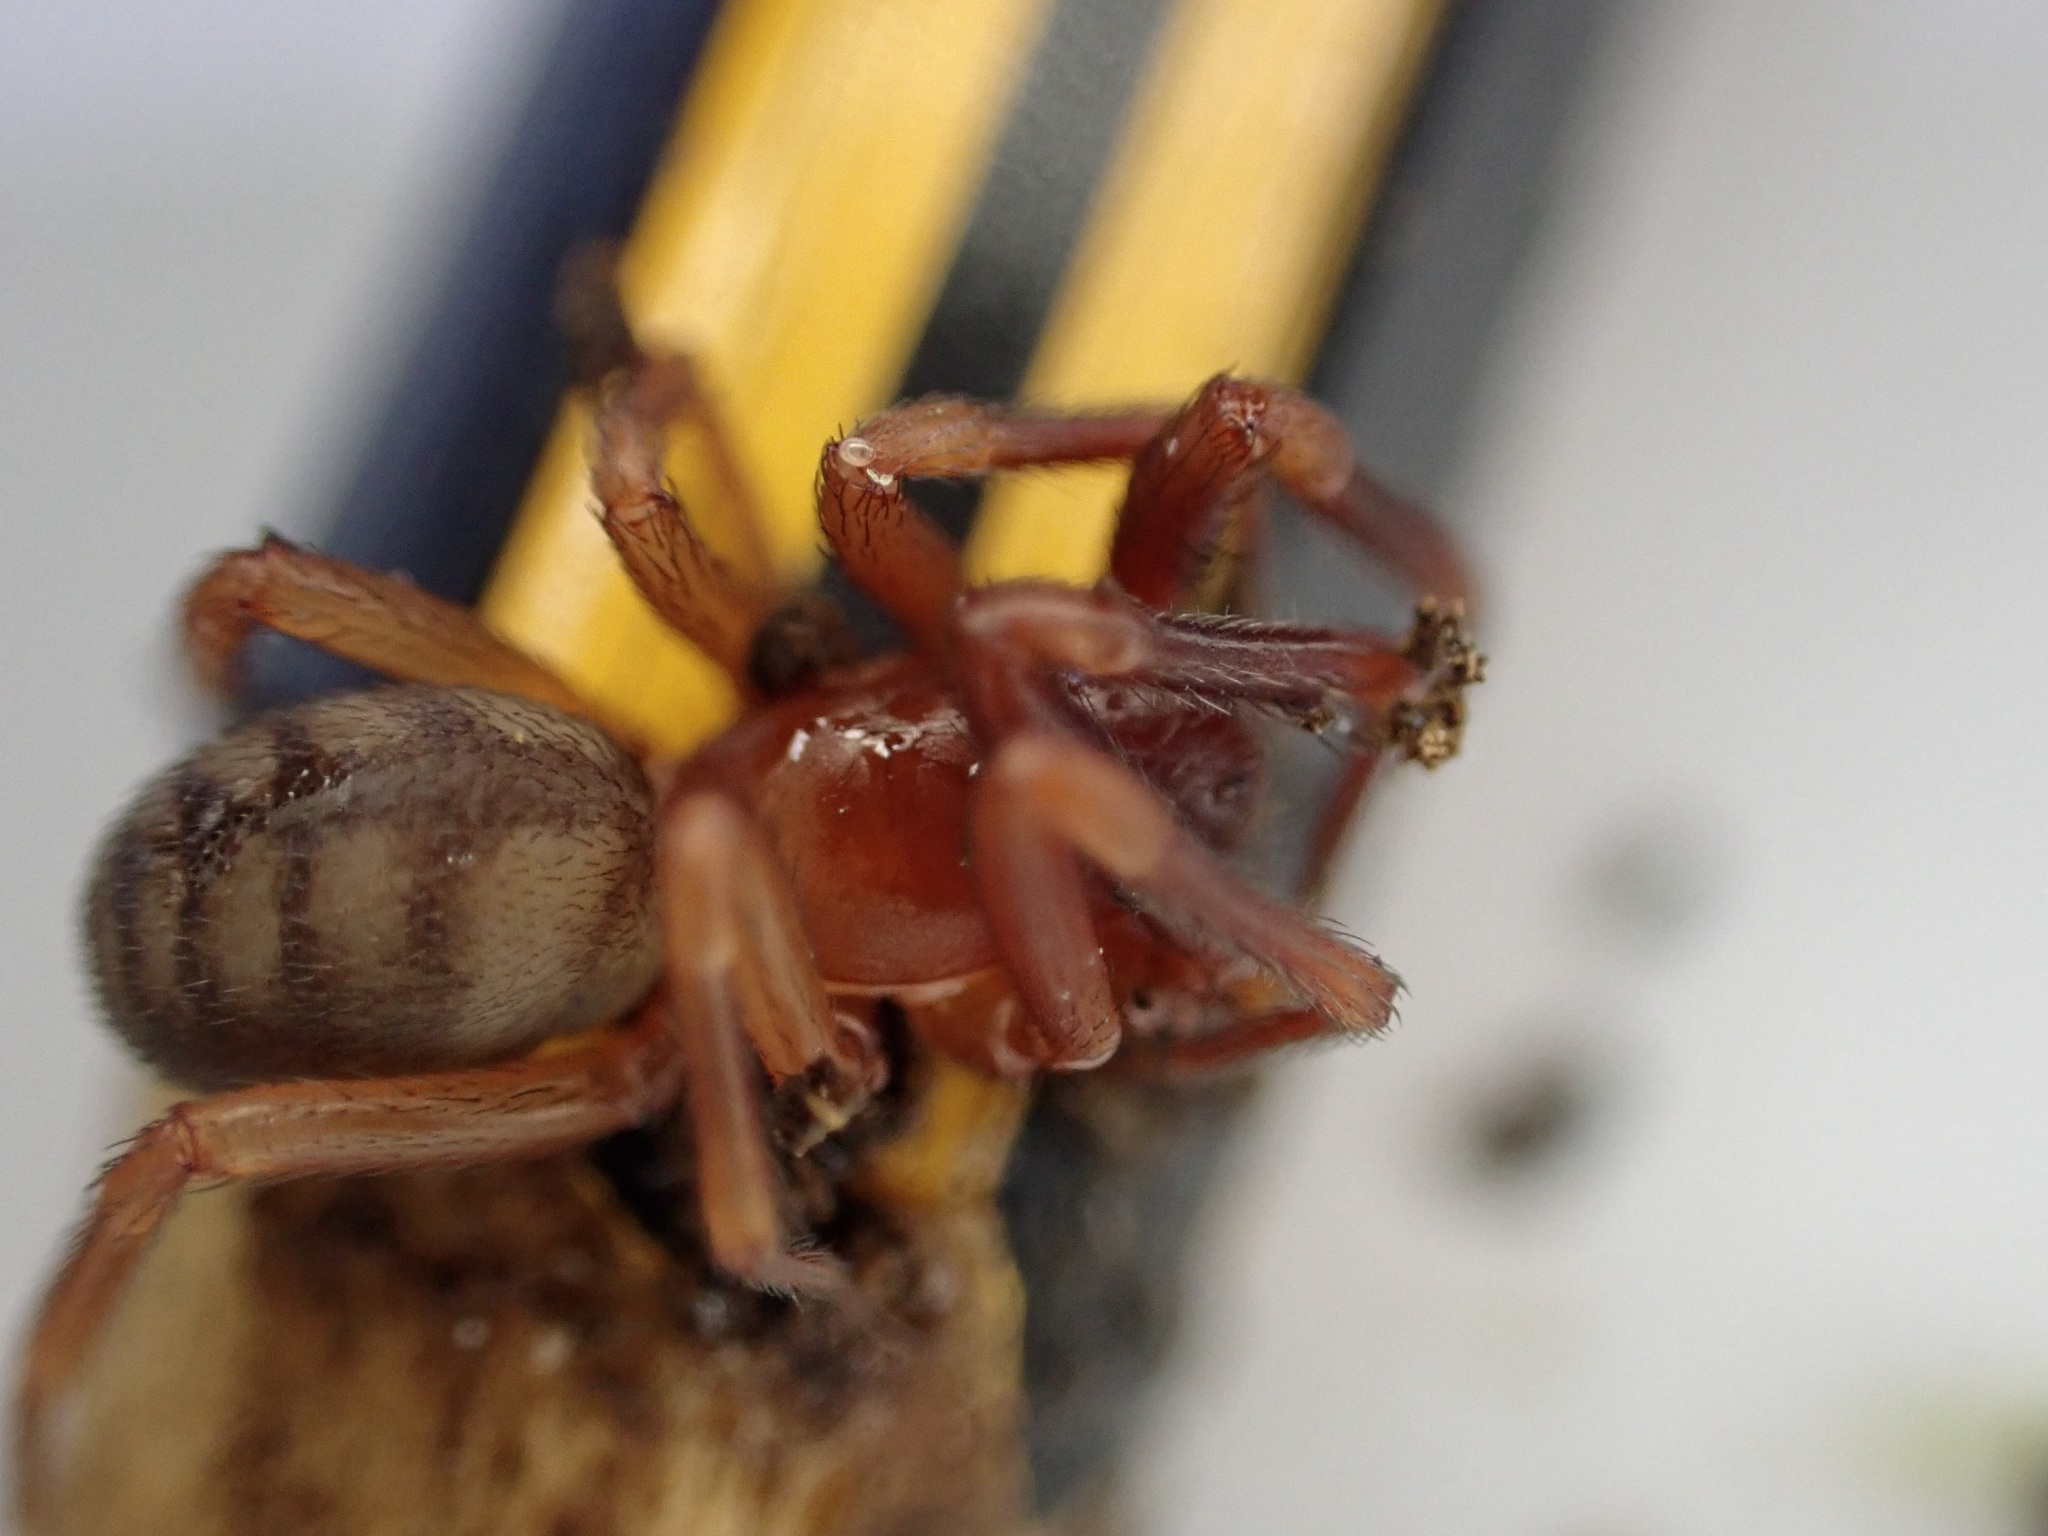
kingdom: Animalia
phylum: Arthropoda
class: Arachnida
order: Araneae
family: Periegopidae
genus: Periegops
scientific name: Periegops suterii
